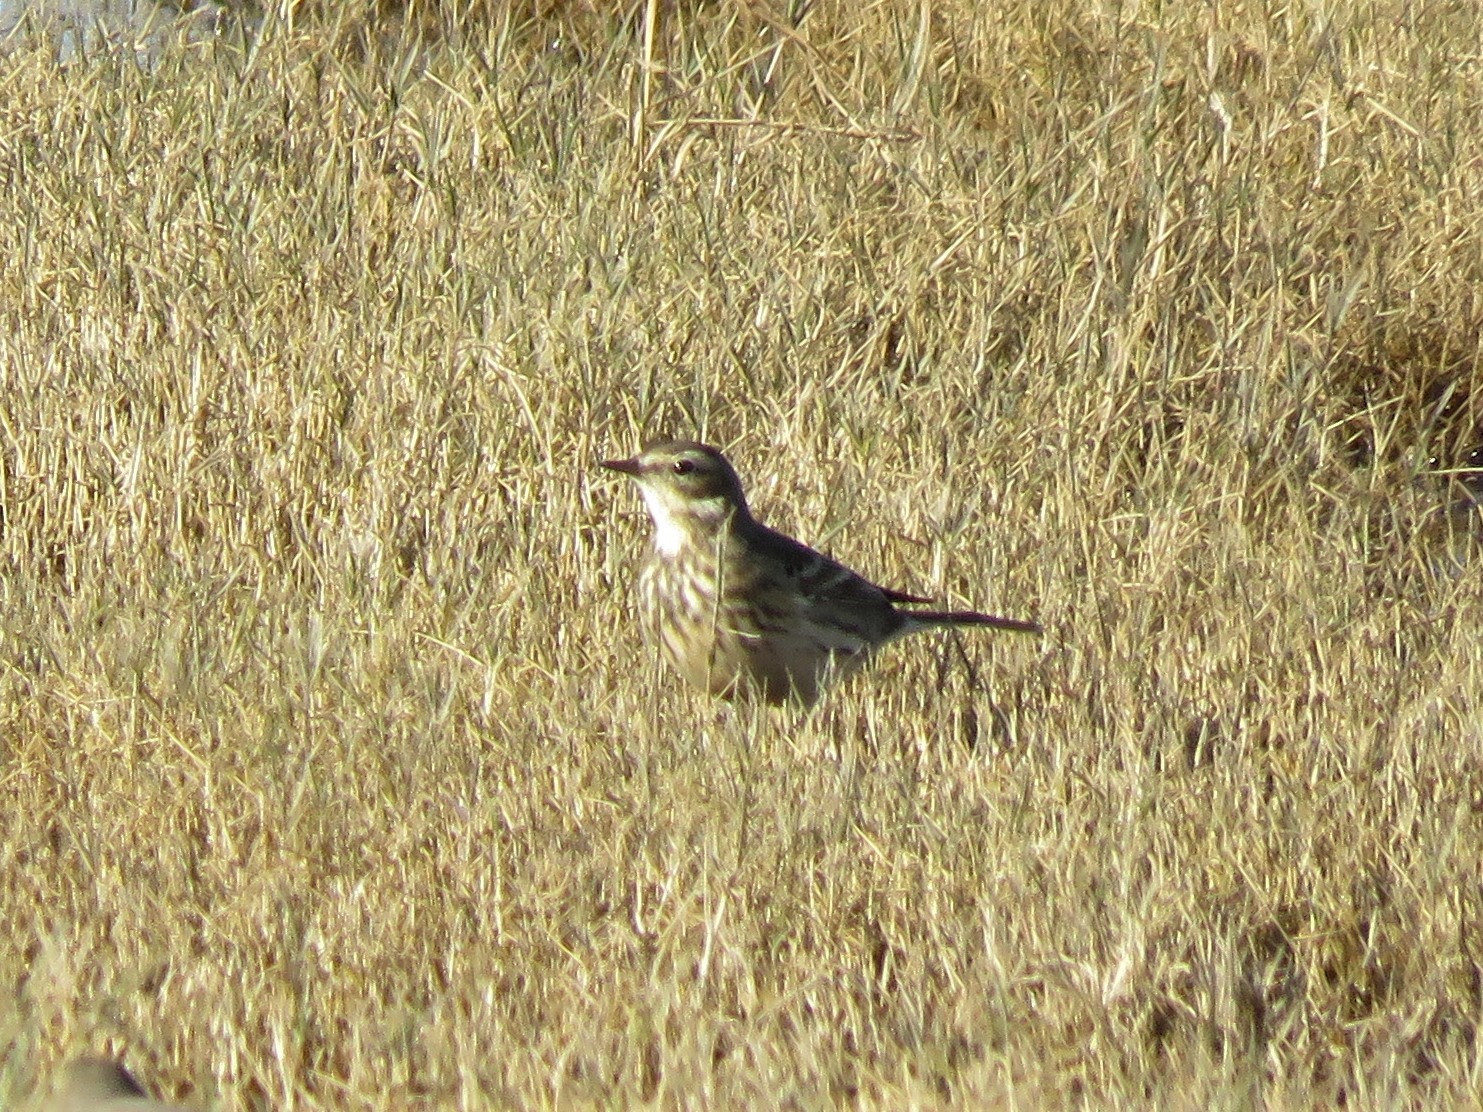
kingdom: Animalia
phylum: Chordata
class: Aves
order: Passeriformes
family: Motacillidae
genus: Anthus
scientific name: Anthus rubescens
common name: Buff-bellied pipit
